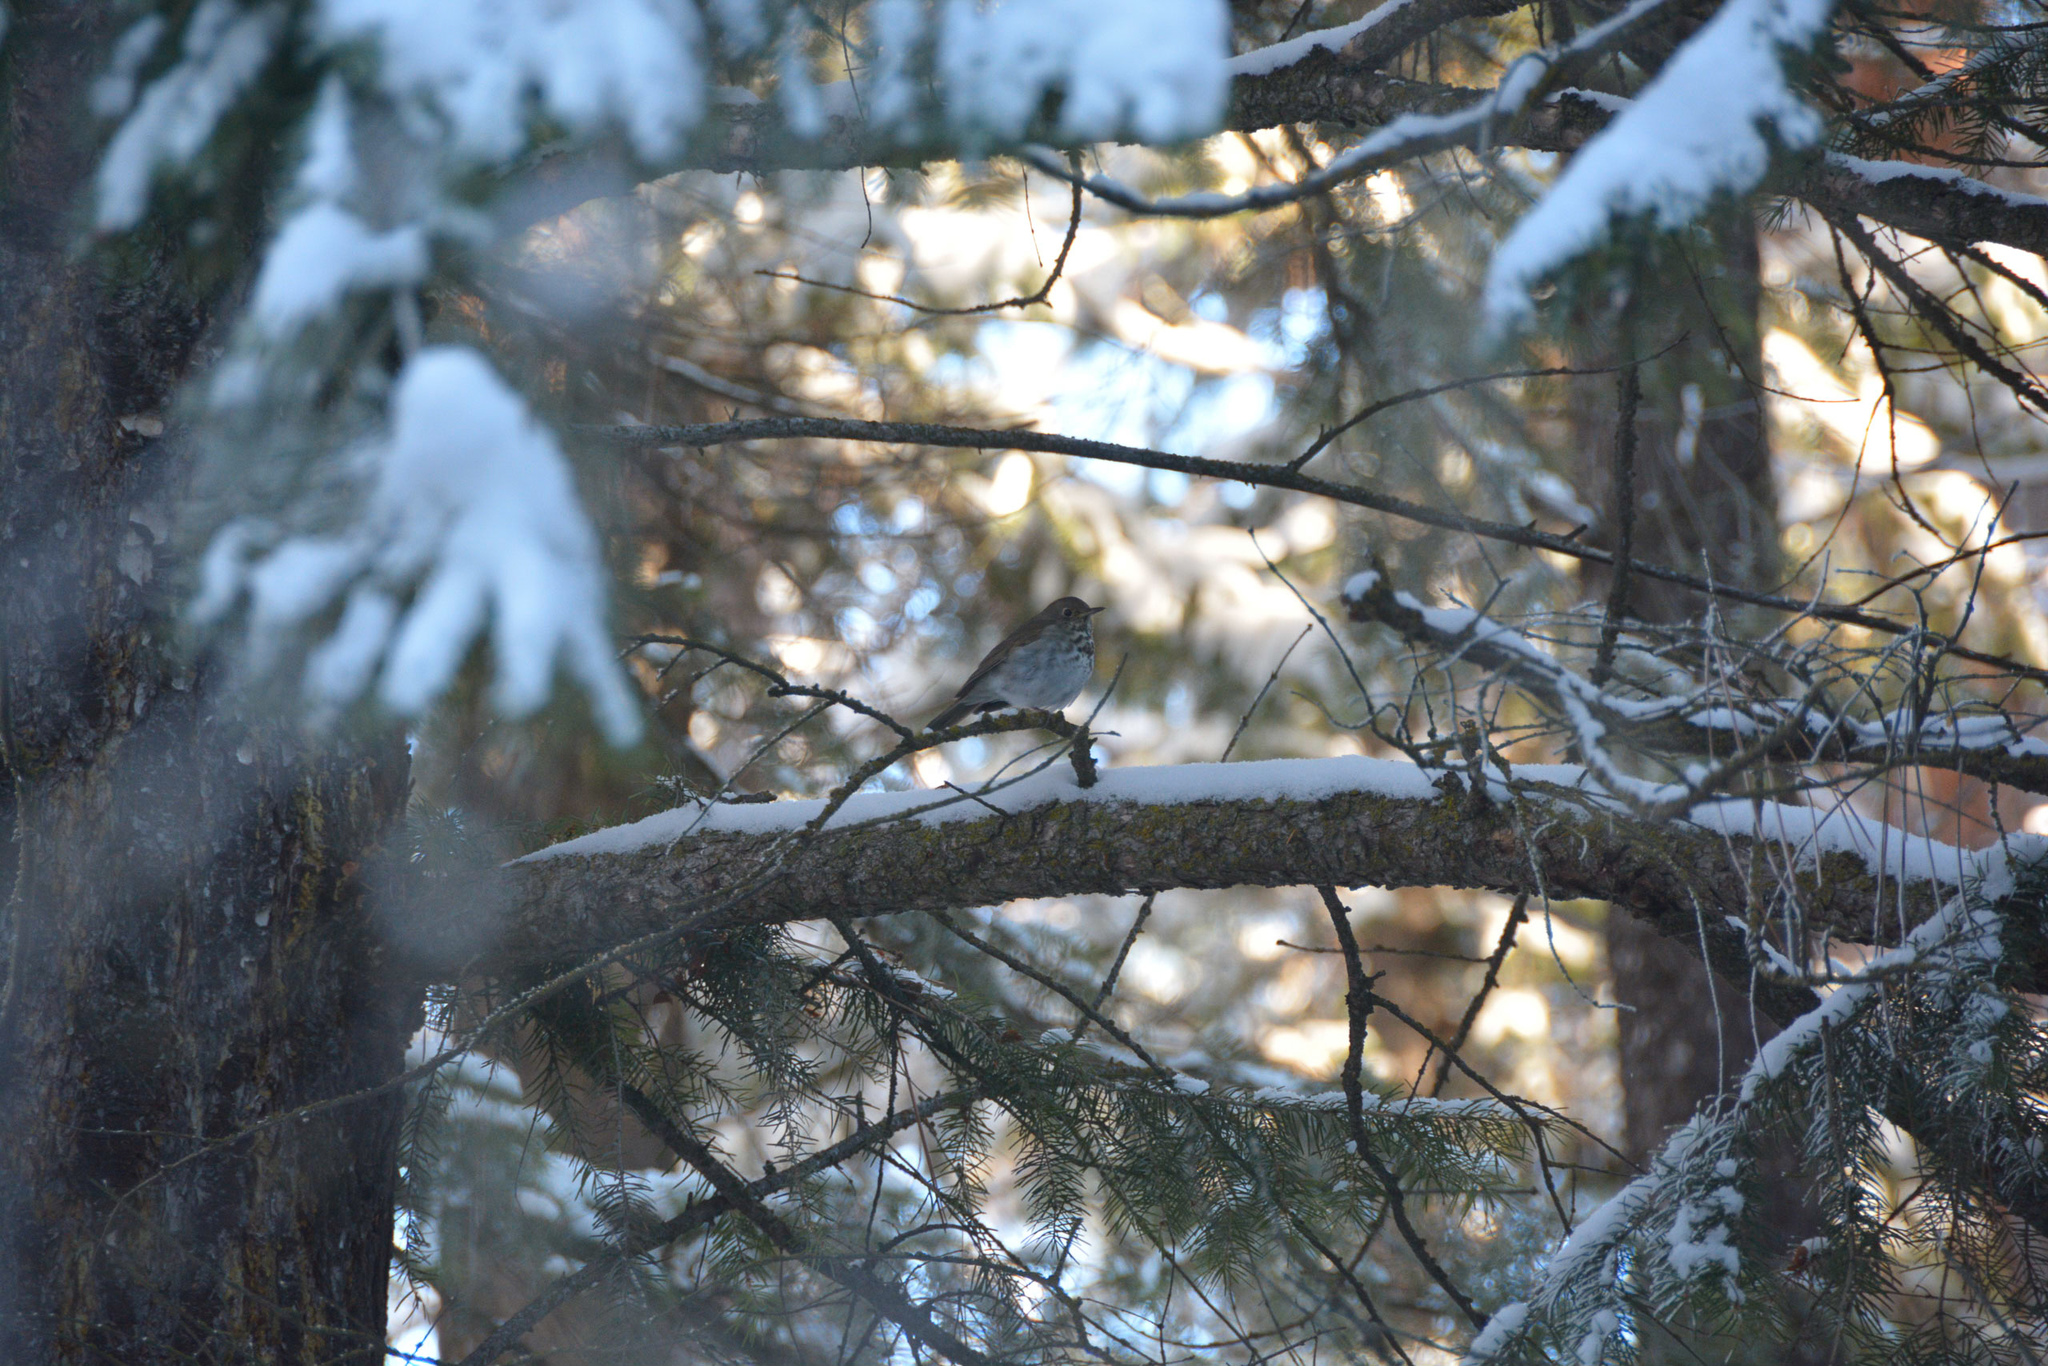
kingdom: Animalia
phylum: Chordata
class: Aves
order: Passeriformes
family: Turdidae
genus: Catharus
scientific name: Catharus guttatus
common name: Hermit thrush
